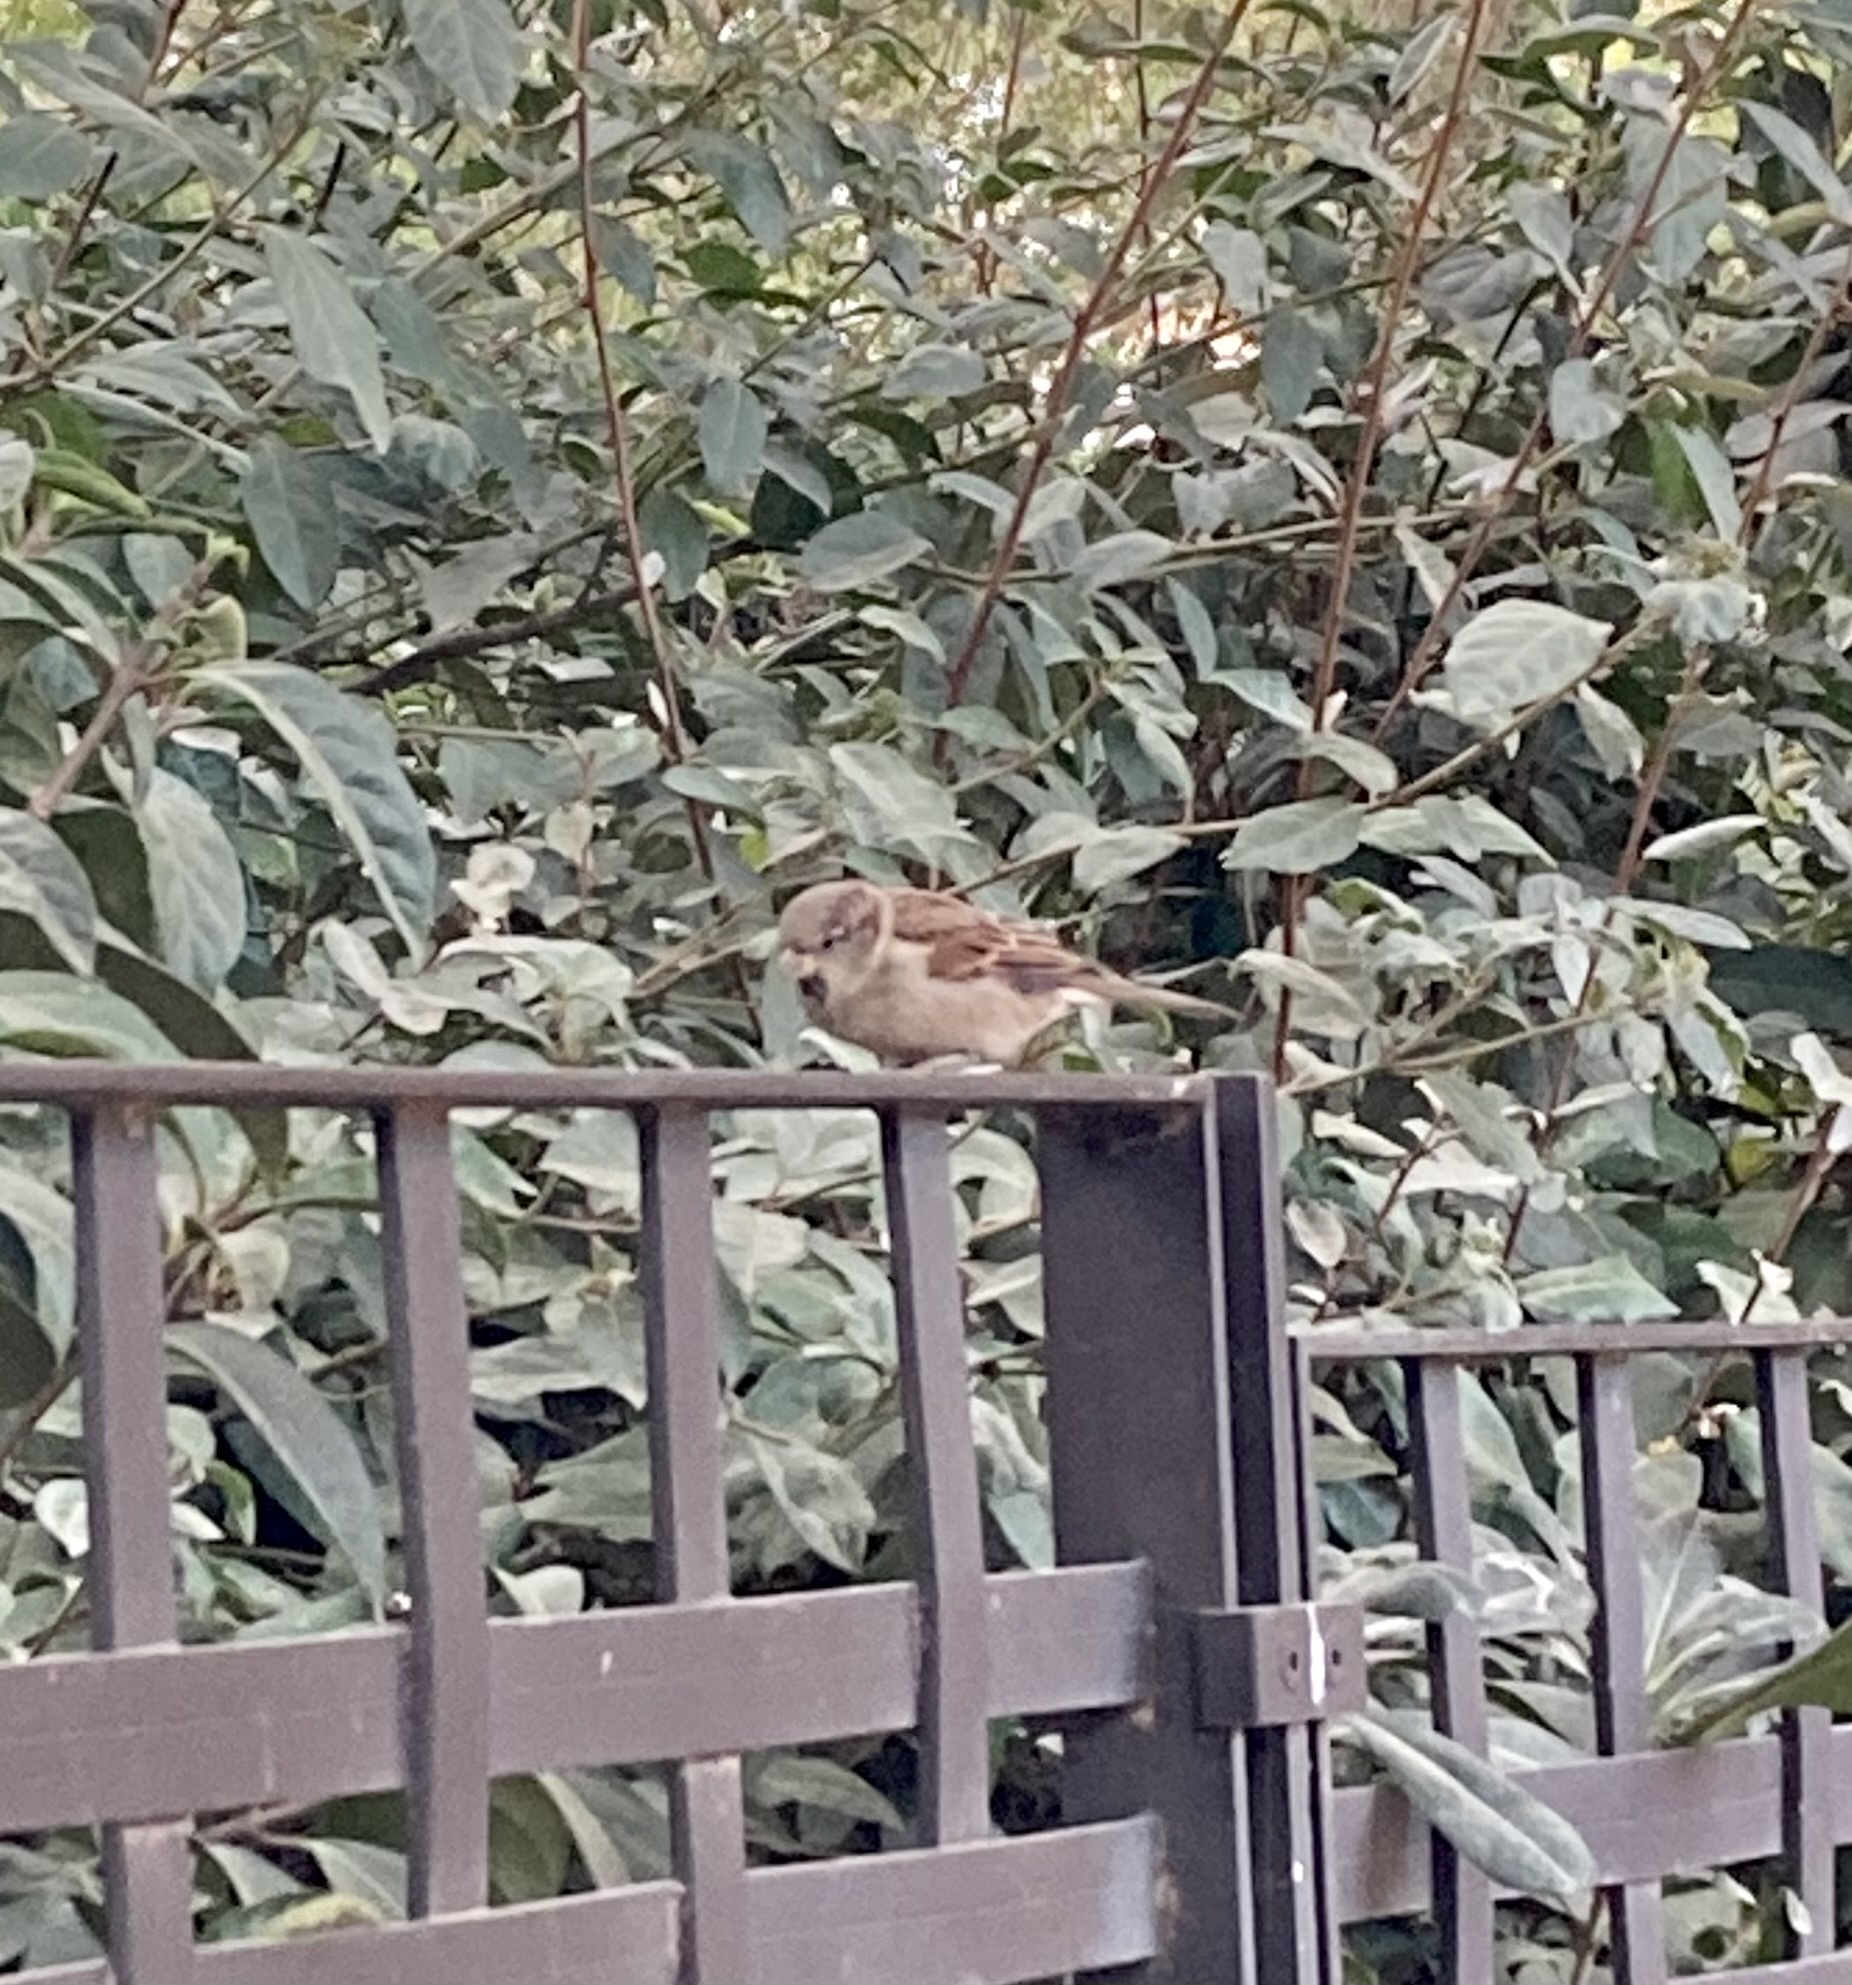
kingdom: Animalia
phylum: Chordata
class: Aves
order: Passeriformes
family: Passeridae
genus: Passer
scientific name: Passer domesticus
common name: House sparrow
